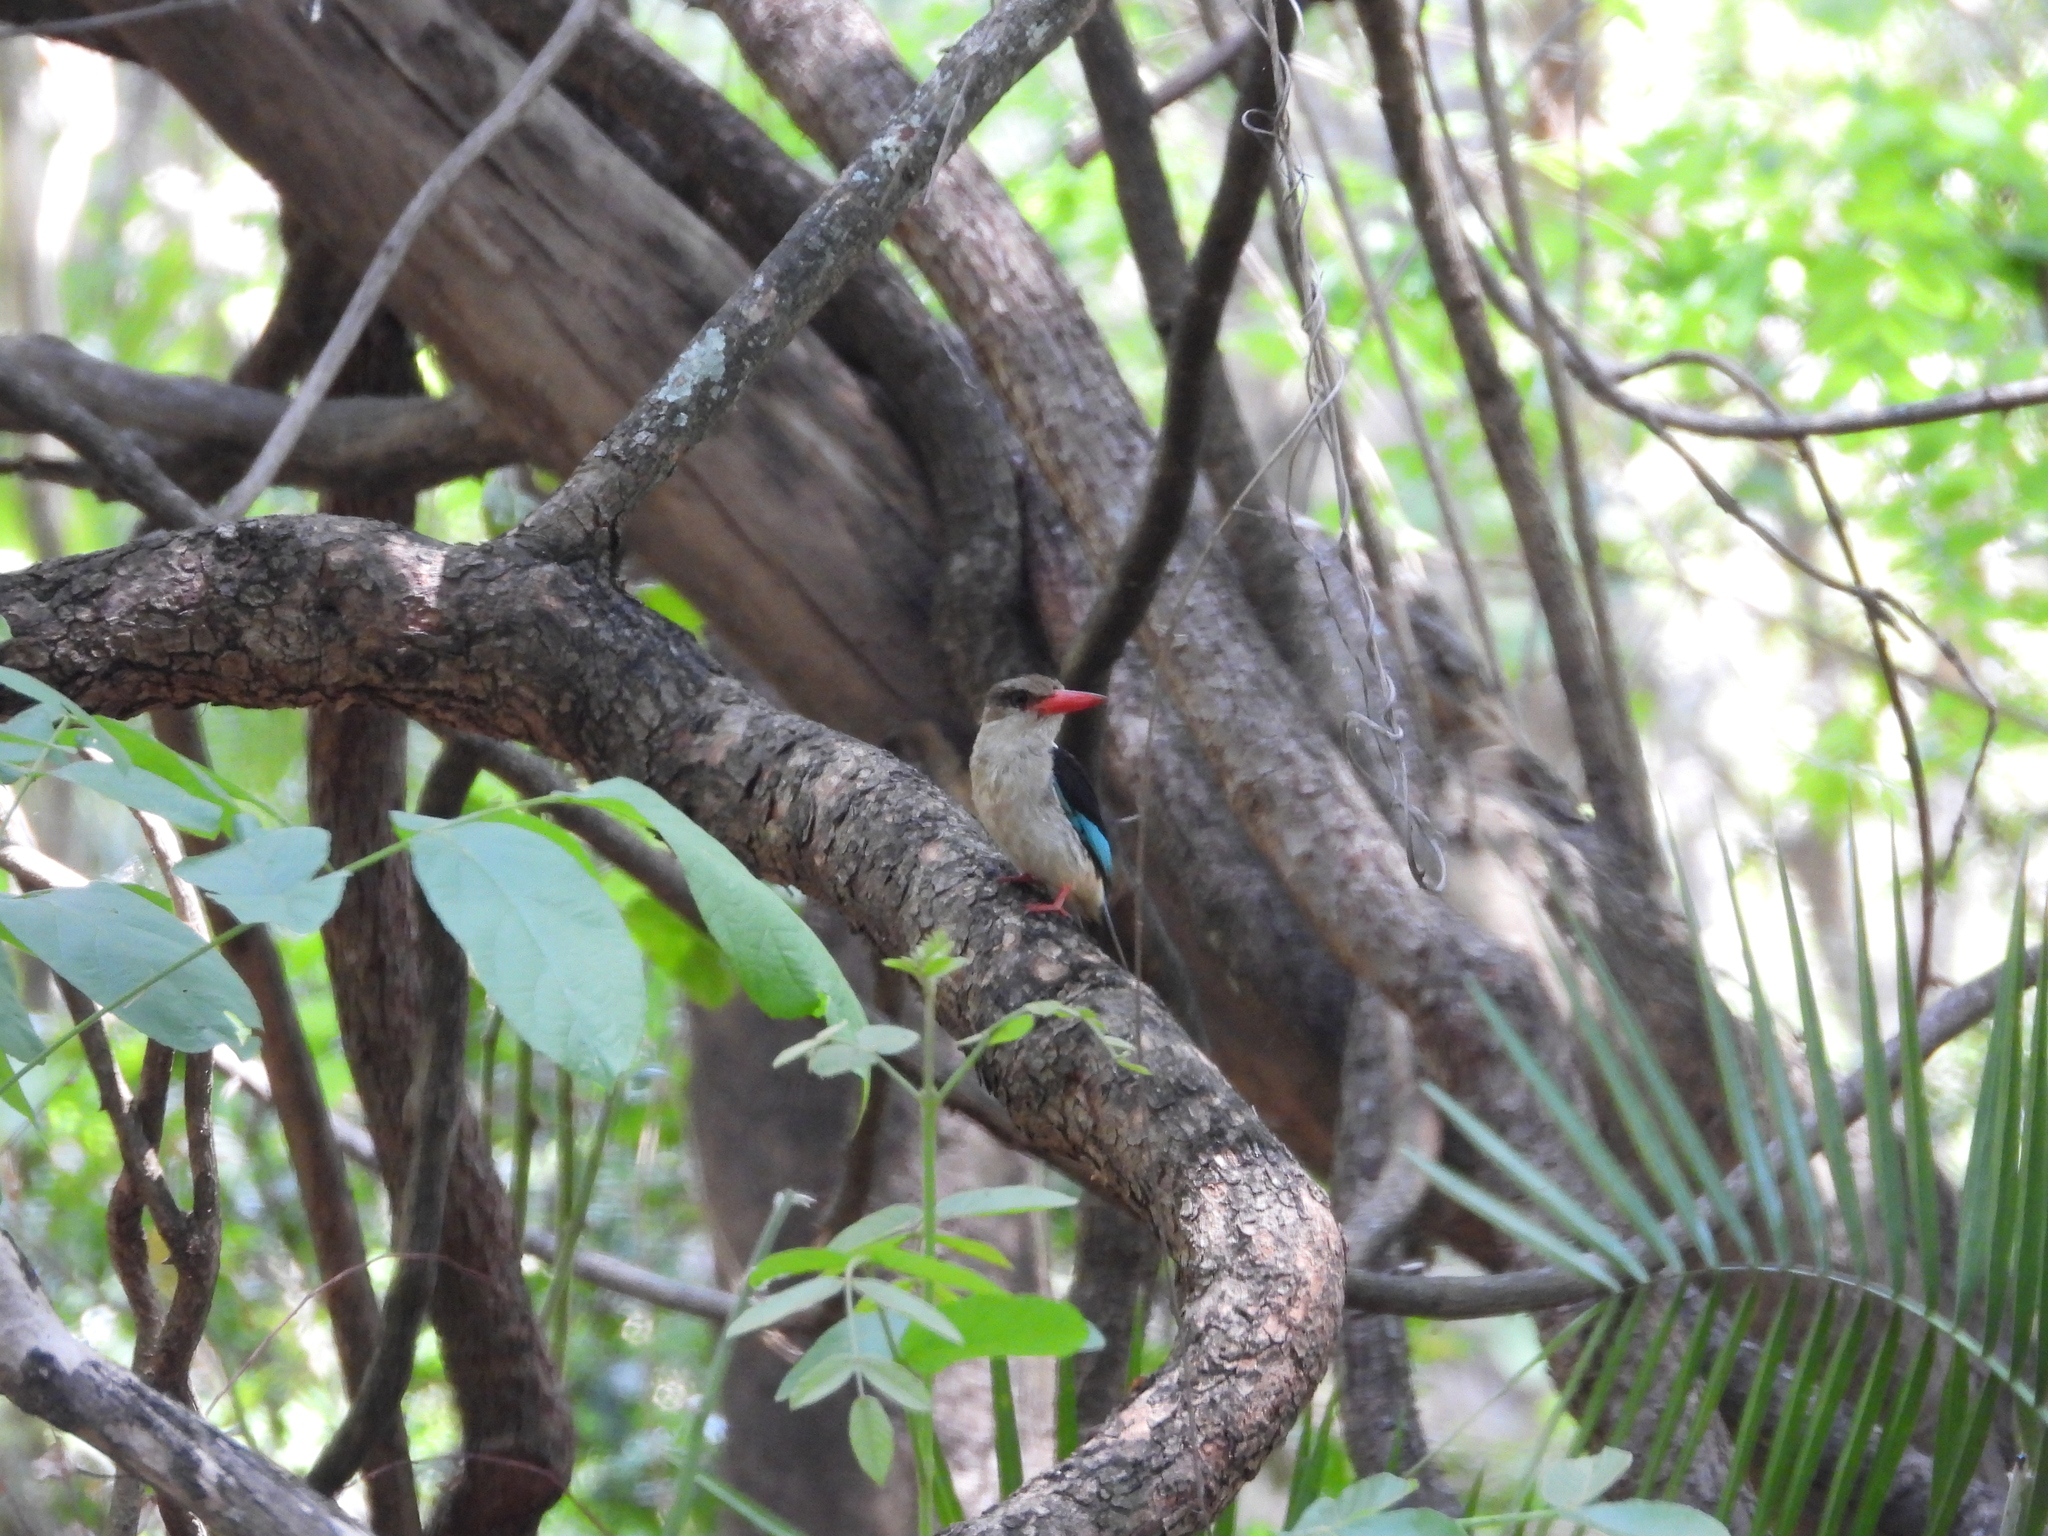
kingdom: Animalia
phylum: Chordata
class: Aves
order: Coraciiformes
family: Alcedinidae
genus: Halcyon
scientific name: Halcyon albiventris
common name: Brown-hooded kingfisher
